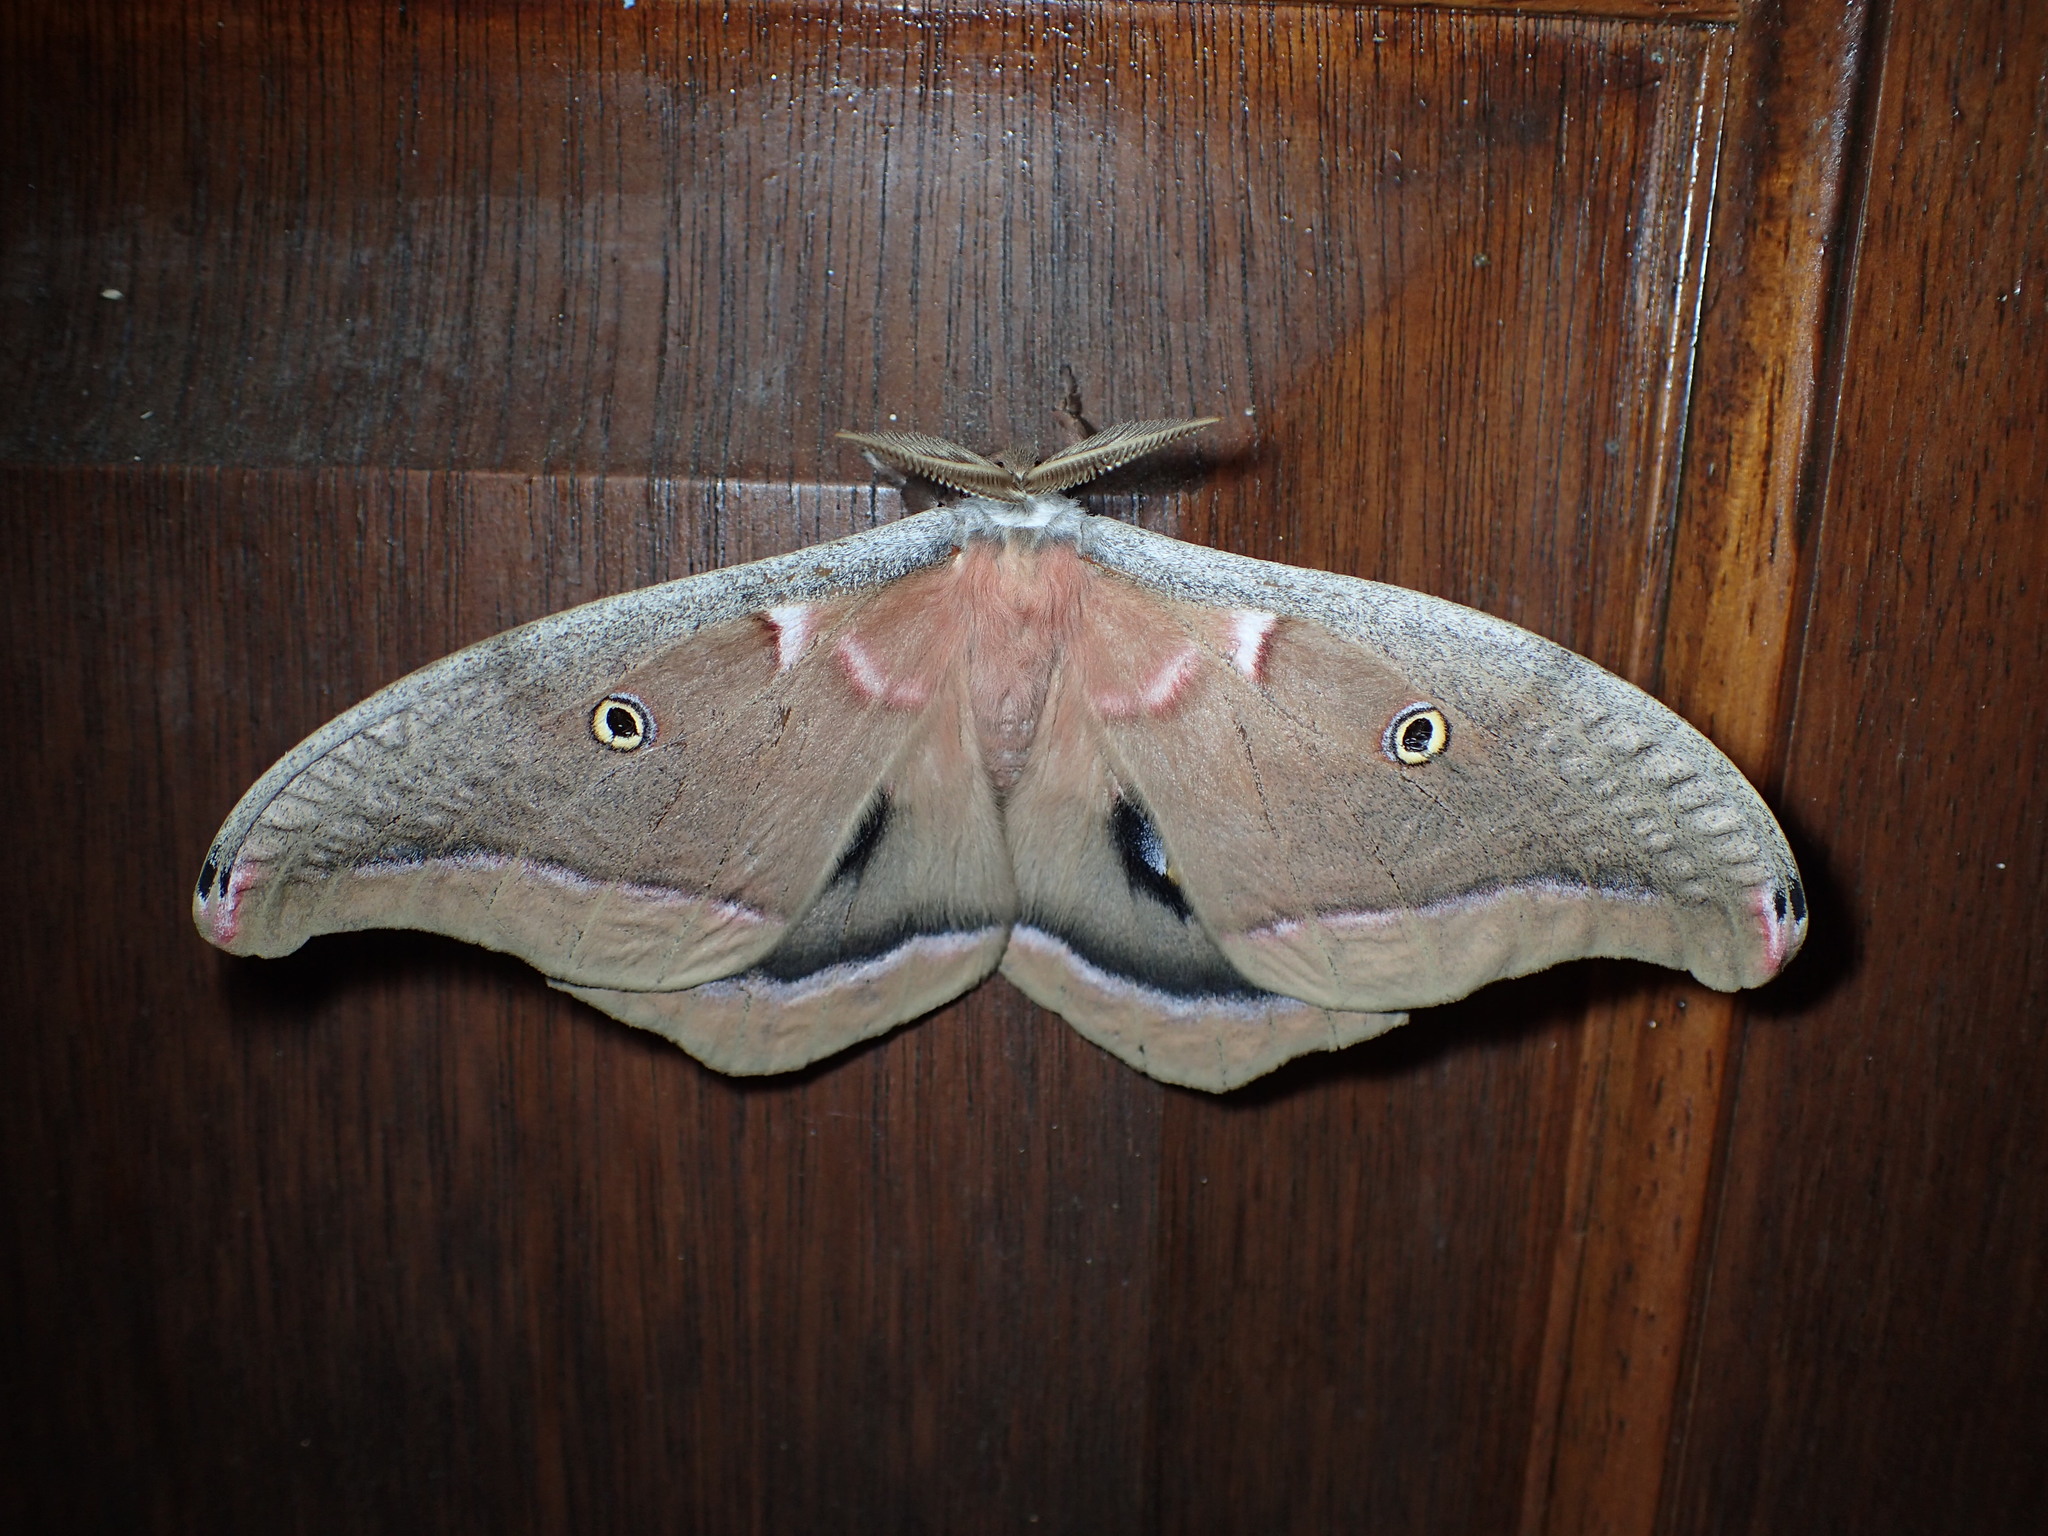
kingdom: Animalia
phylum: Arthropoda
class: Insecta
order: Lepidoptera
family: Saturniidae
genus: Antheraea
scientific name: Antheraea polyphemus
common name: Polyphemus moth
